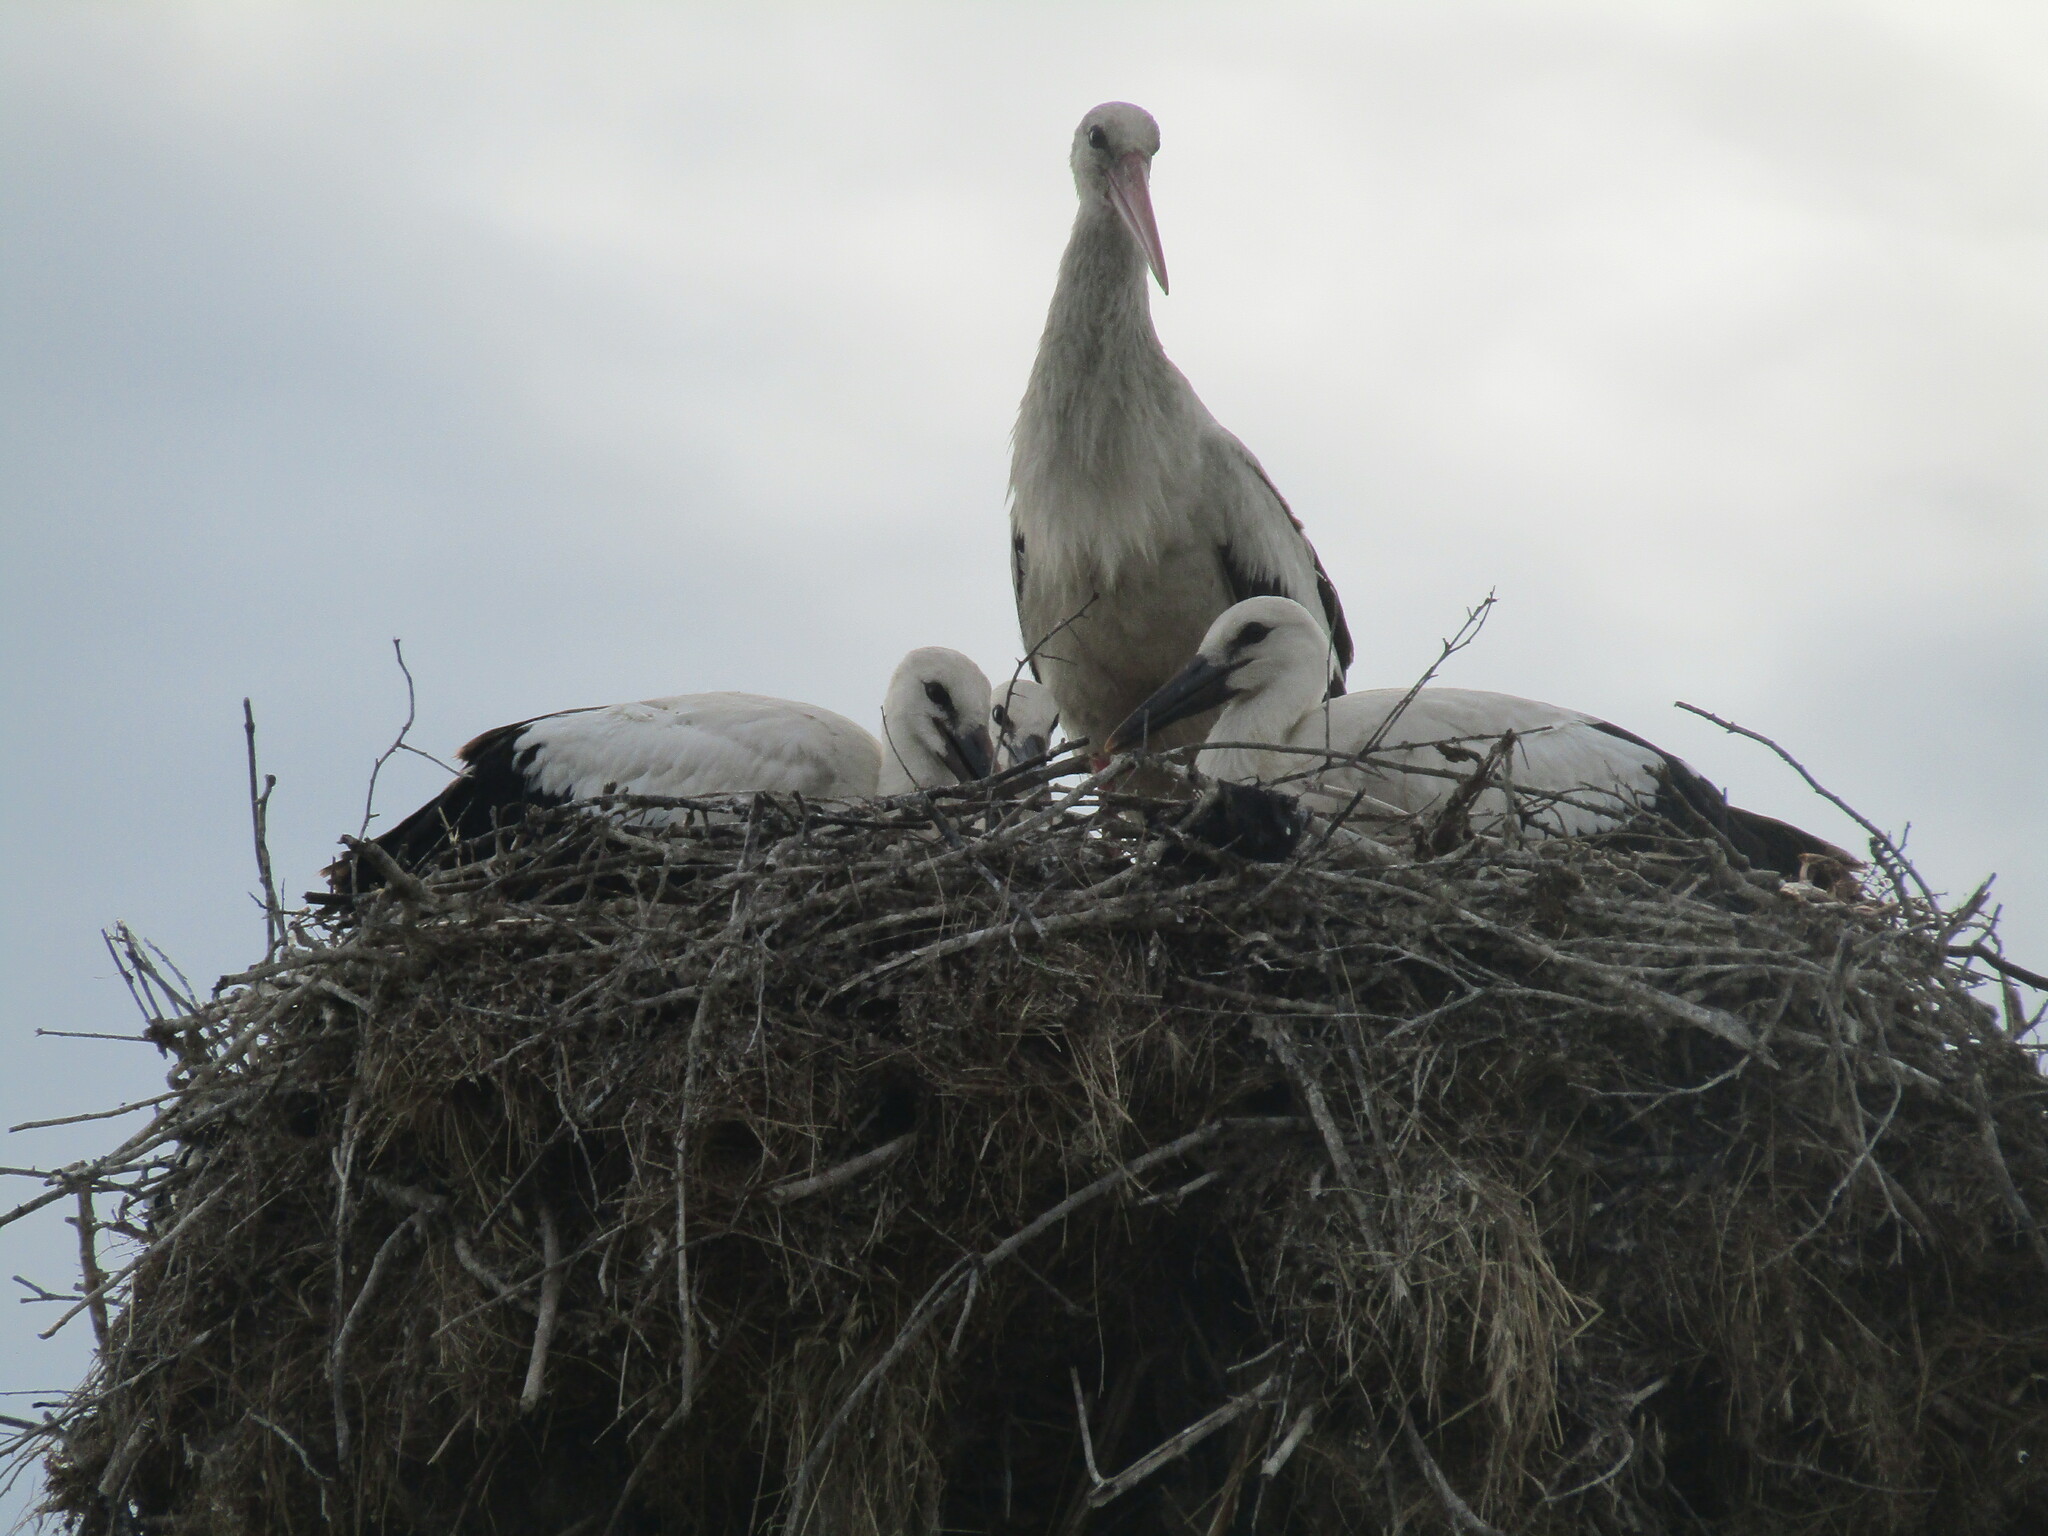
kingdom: Animalia
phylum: Chordata
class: Aves
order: Ciconiiformes
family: Ciconiidae
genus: Ciconia
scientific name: Ciconia ciconia
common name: White stork
